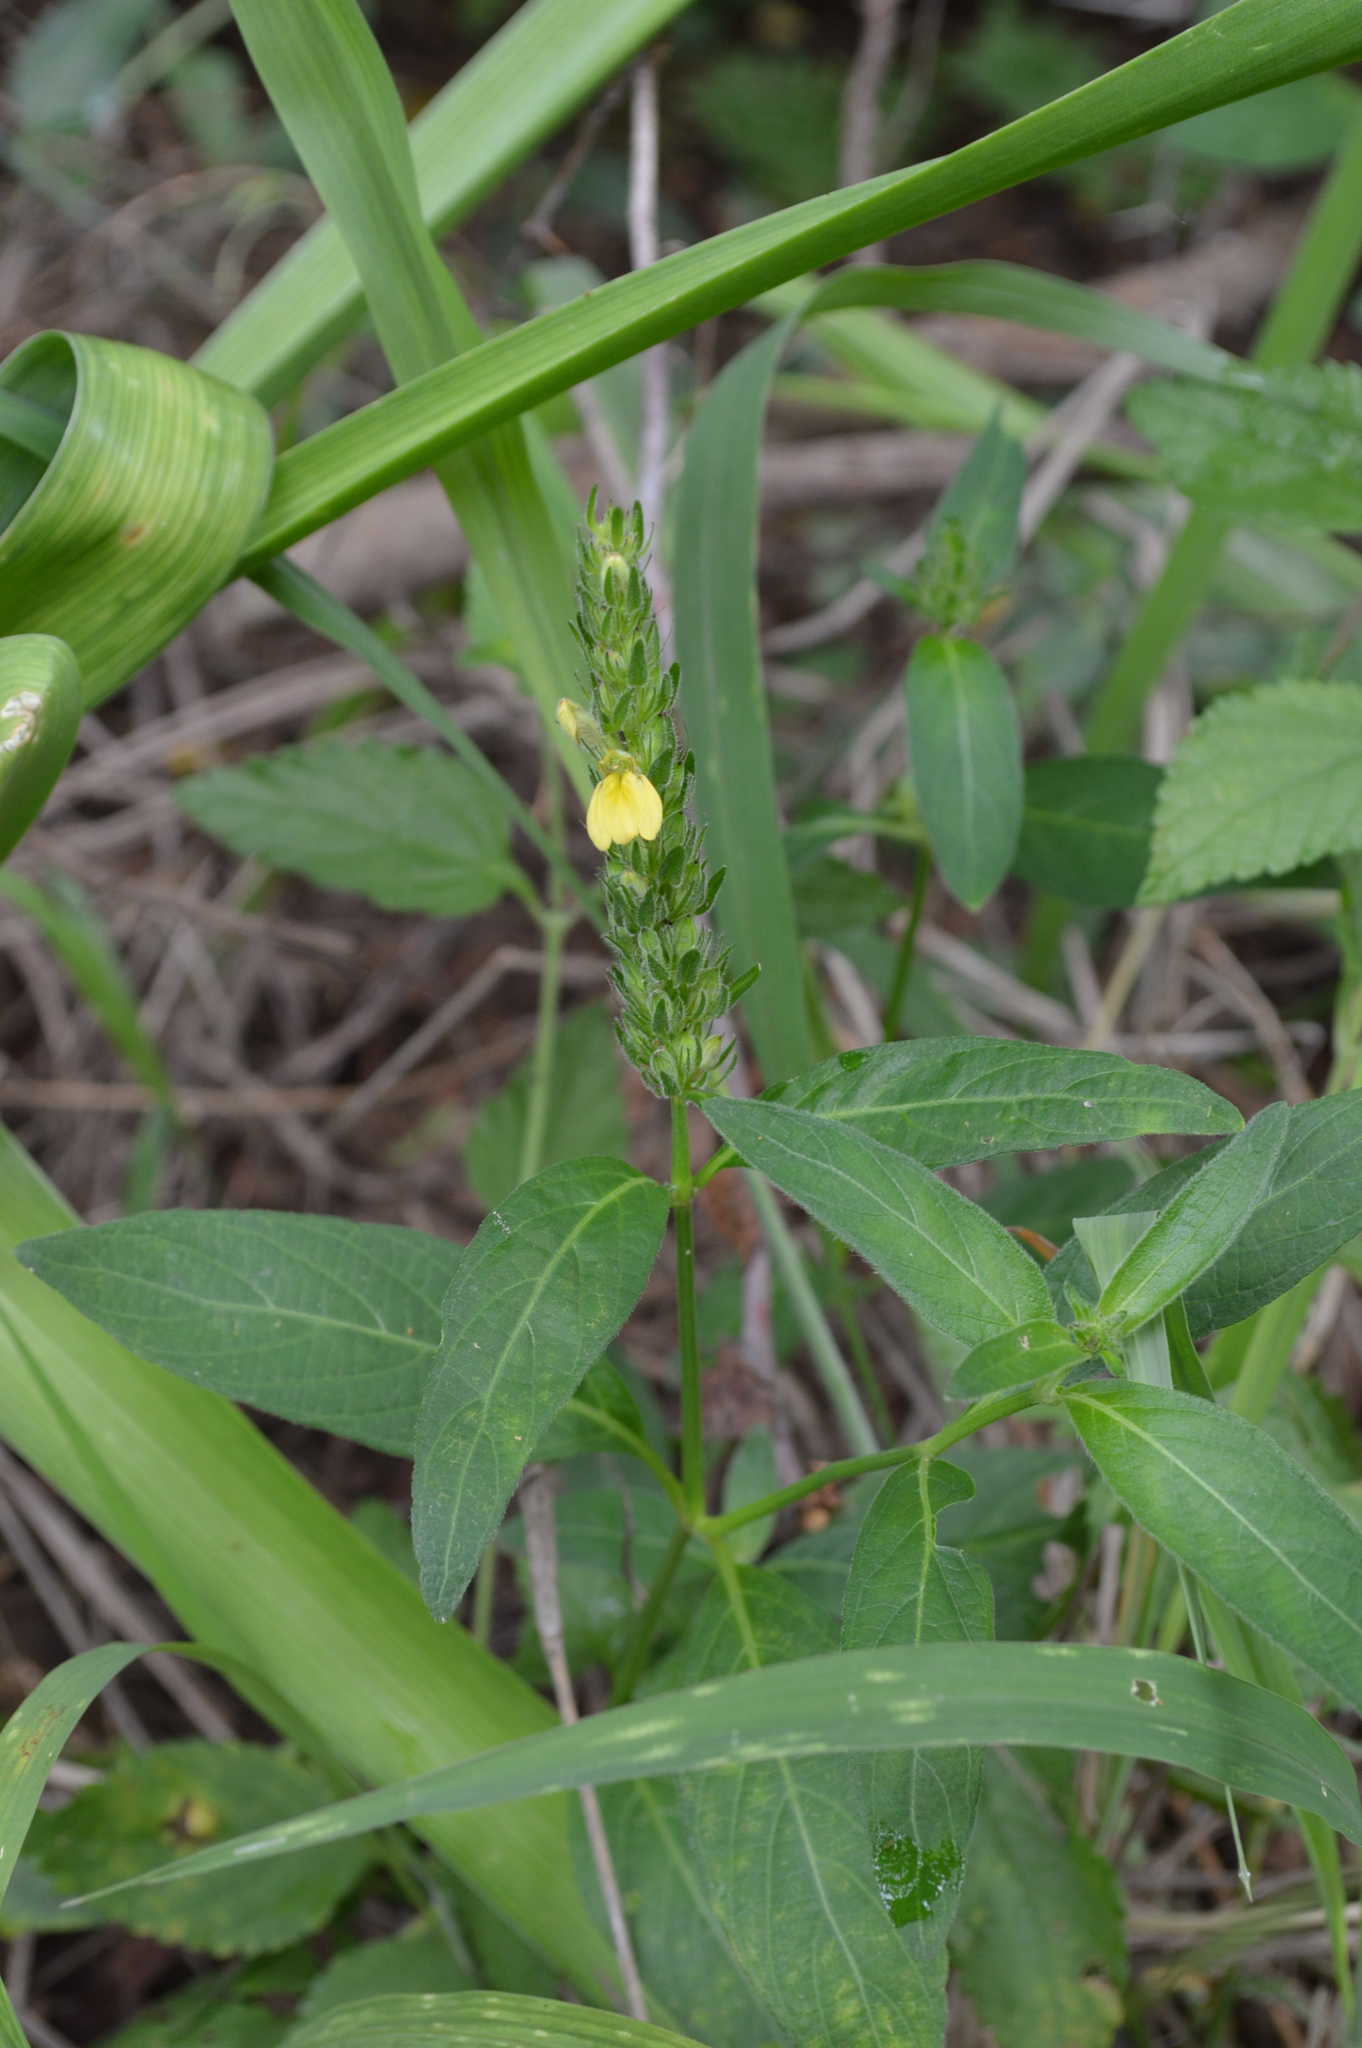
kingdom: Plantae
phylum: Tracheophyta
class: Magnoliopsida
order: Lamiales
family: Acanthaceae
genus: Justicia
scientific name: Justicia flava
